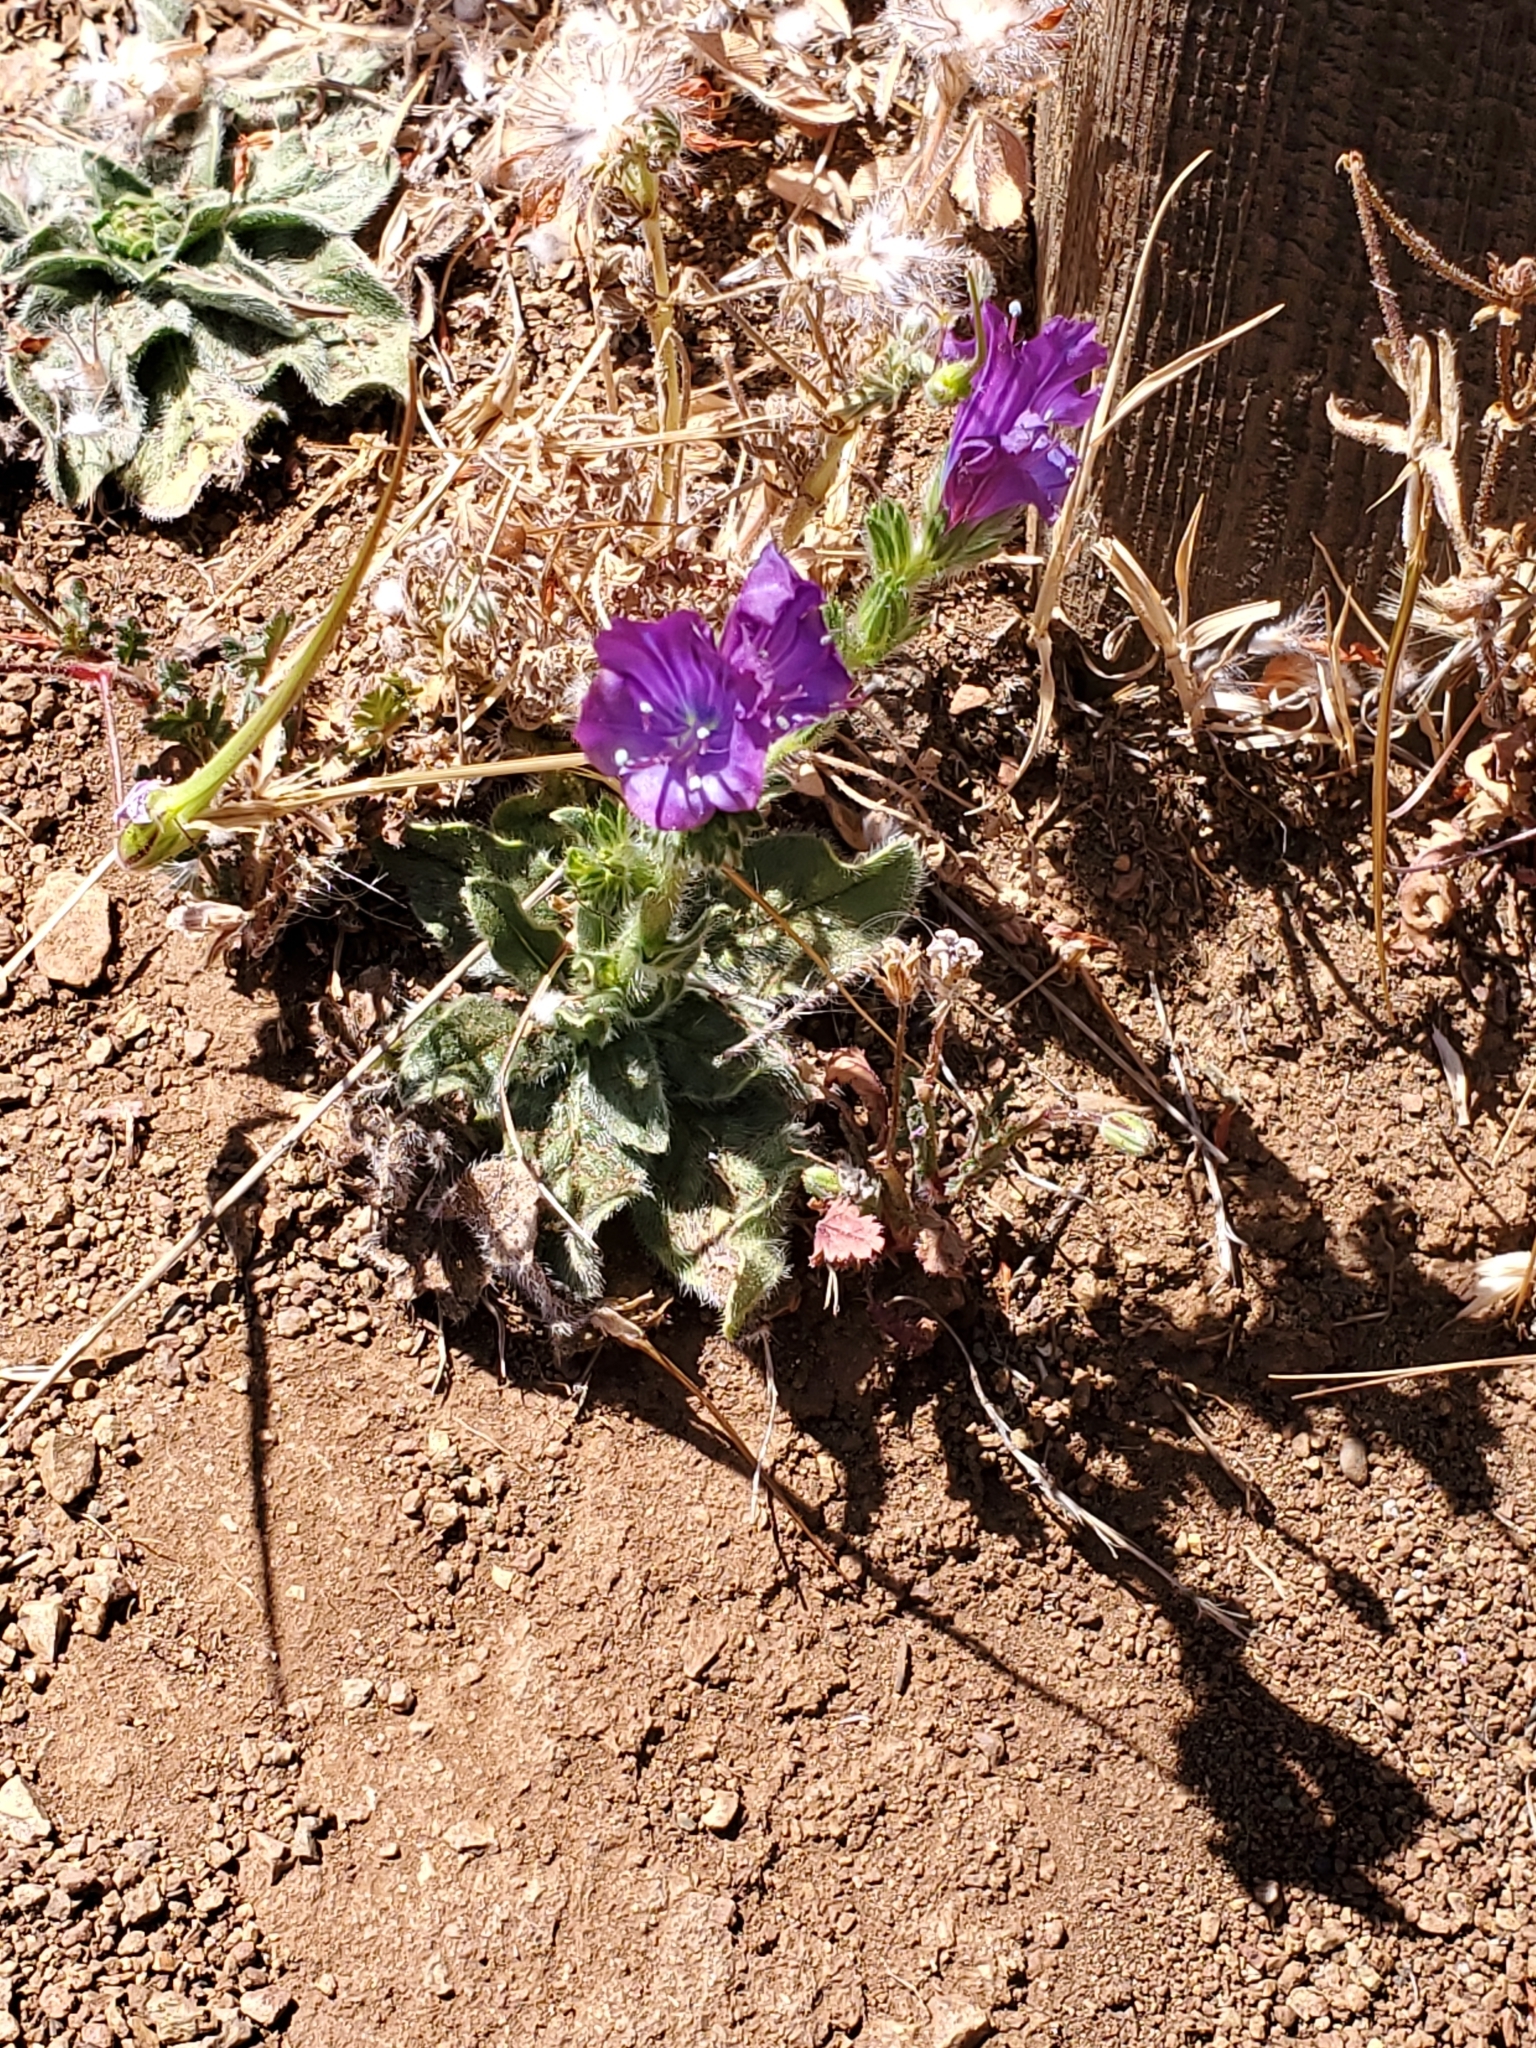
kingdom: Plantae
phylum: Tracheophyta
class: Magnoliopsida
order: Boraginales
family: Boraginaceae
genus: Echium
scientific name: Echium plantagineum
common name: Purple viper's-bugloss
